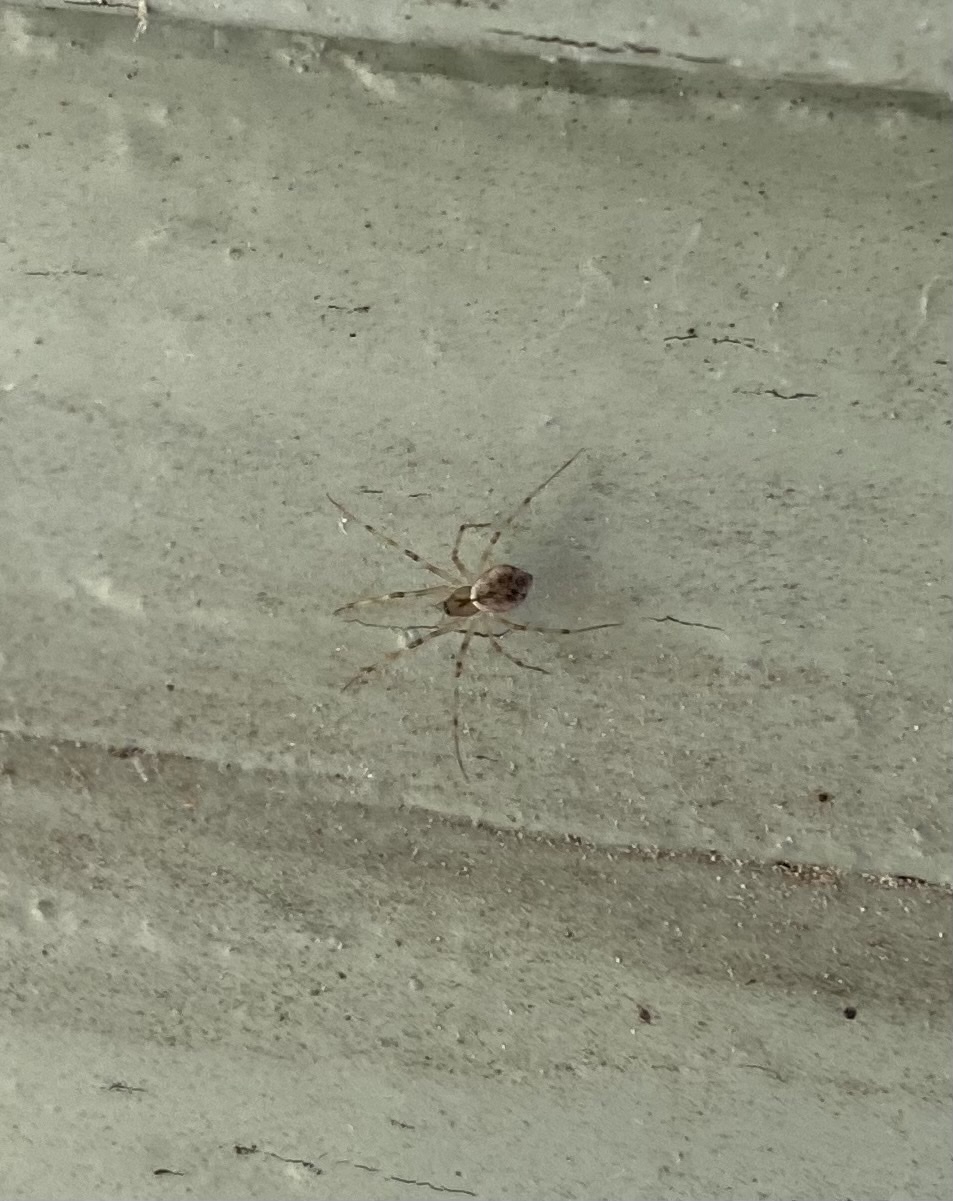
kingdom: Animalia
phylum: Arthropoda
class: Arachnida
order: Araneae
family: Linyphiidae
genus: Drapetisca
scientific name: Drapetisca socialis
